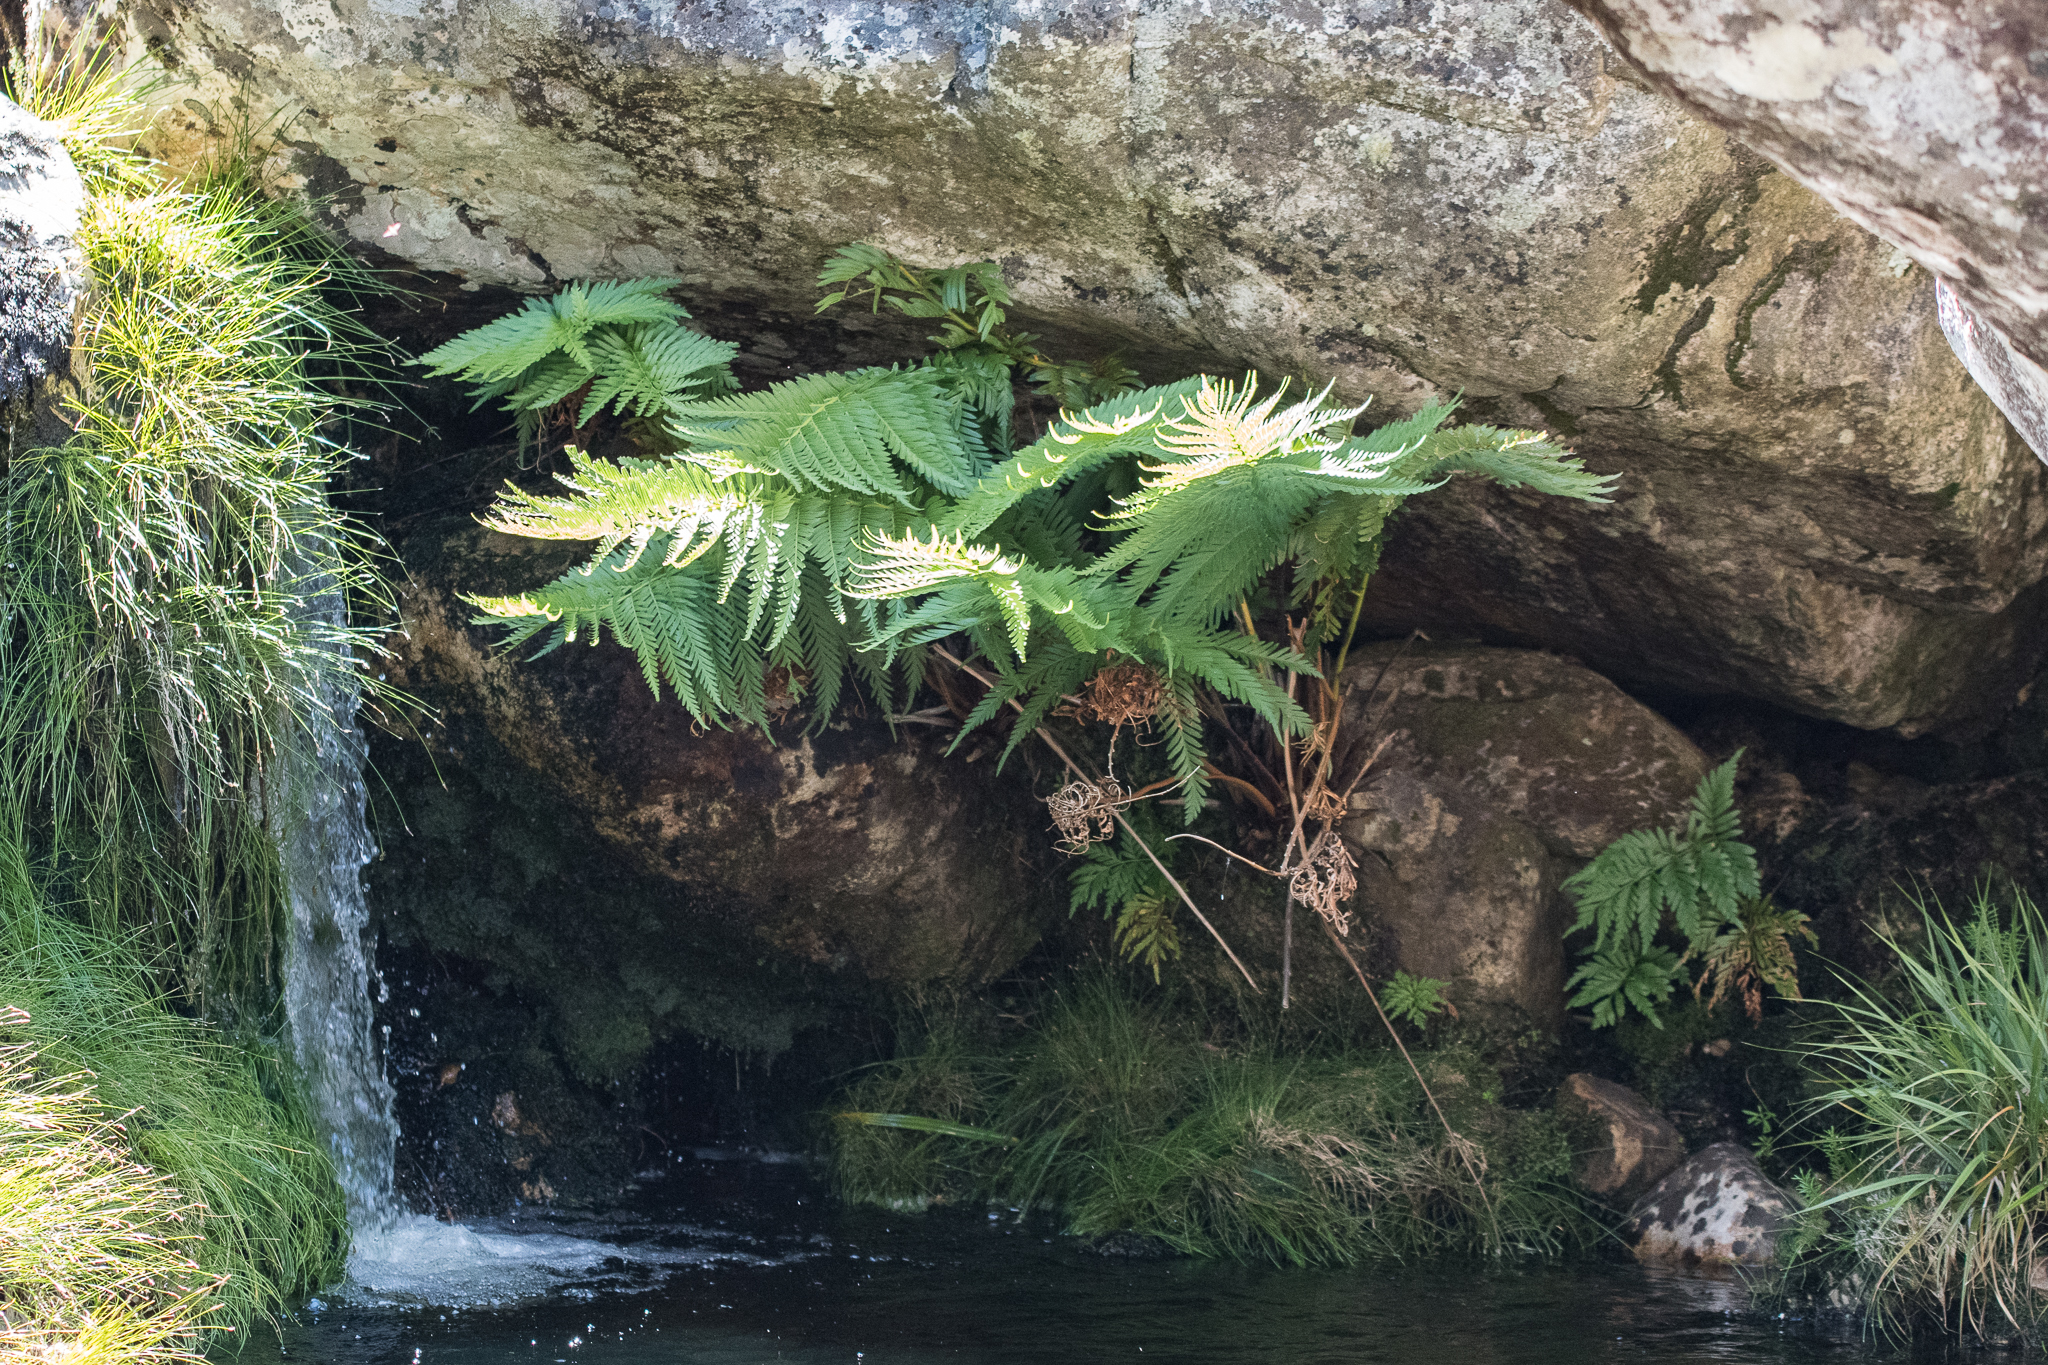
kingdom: Plantae
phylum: Tracheophyta
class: Polypodiopsida
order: Osmundales
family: Osmundaceae
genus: Todea
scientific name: Todea barbara
